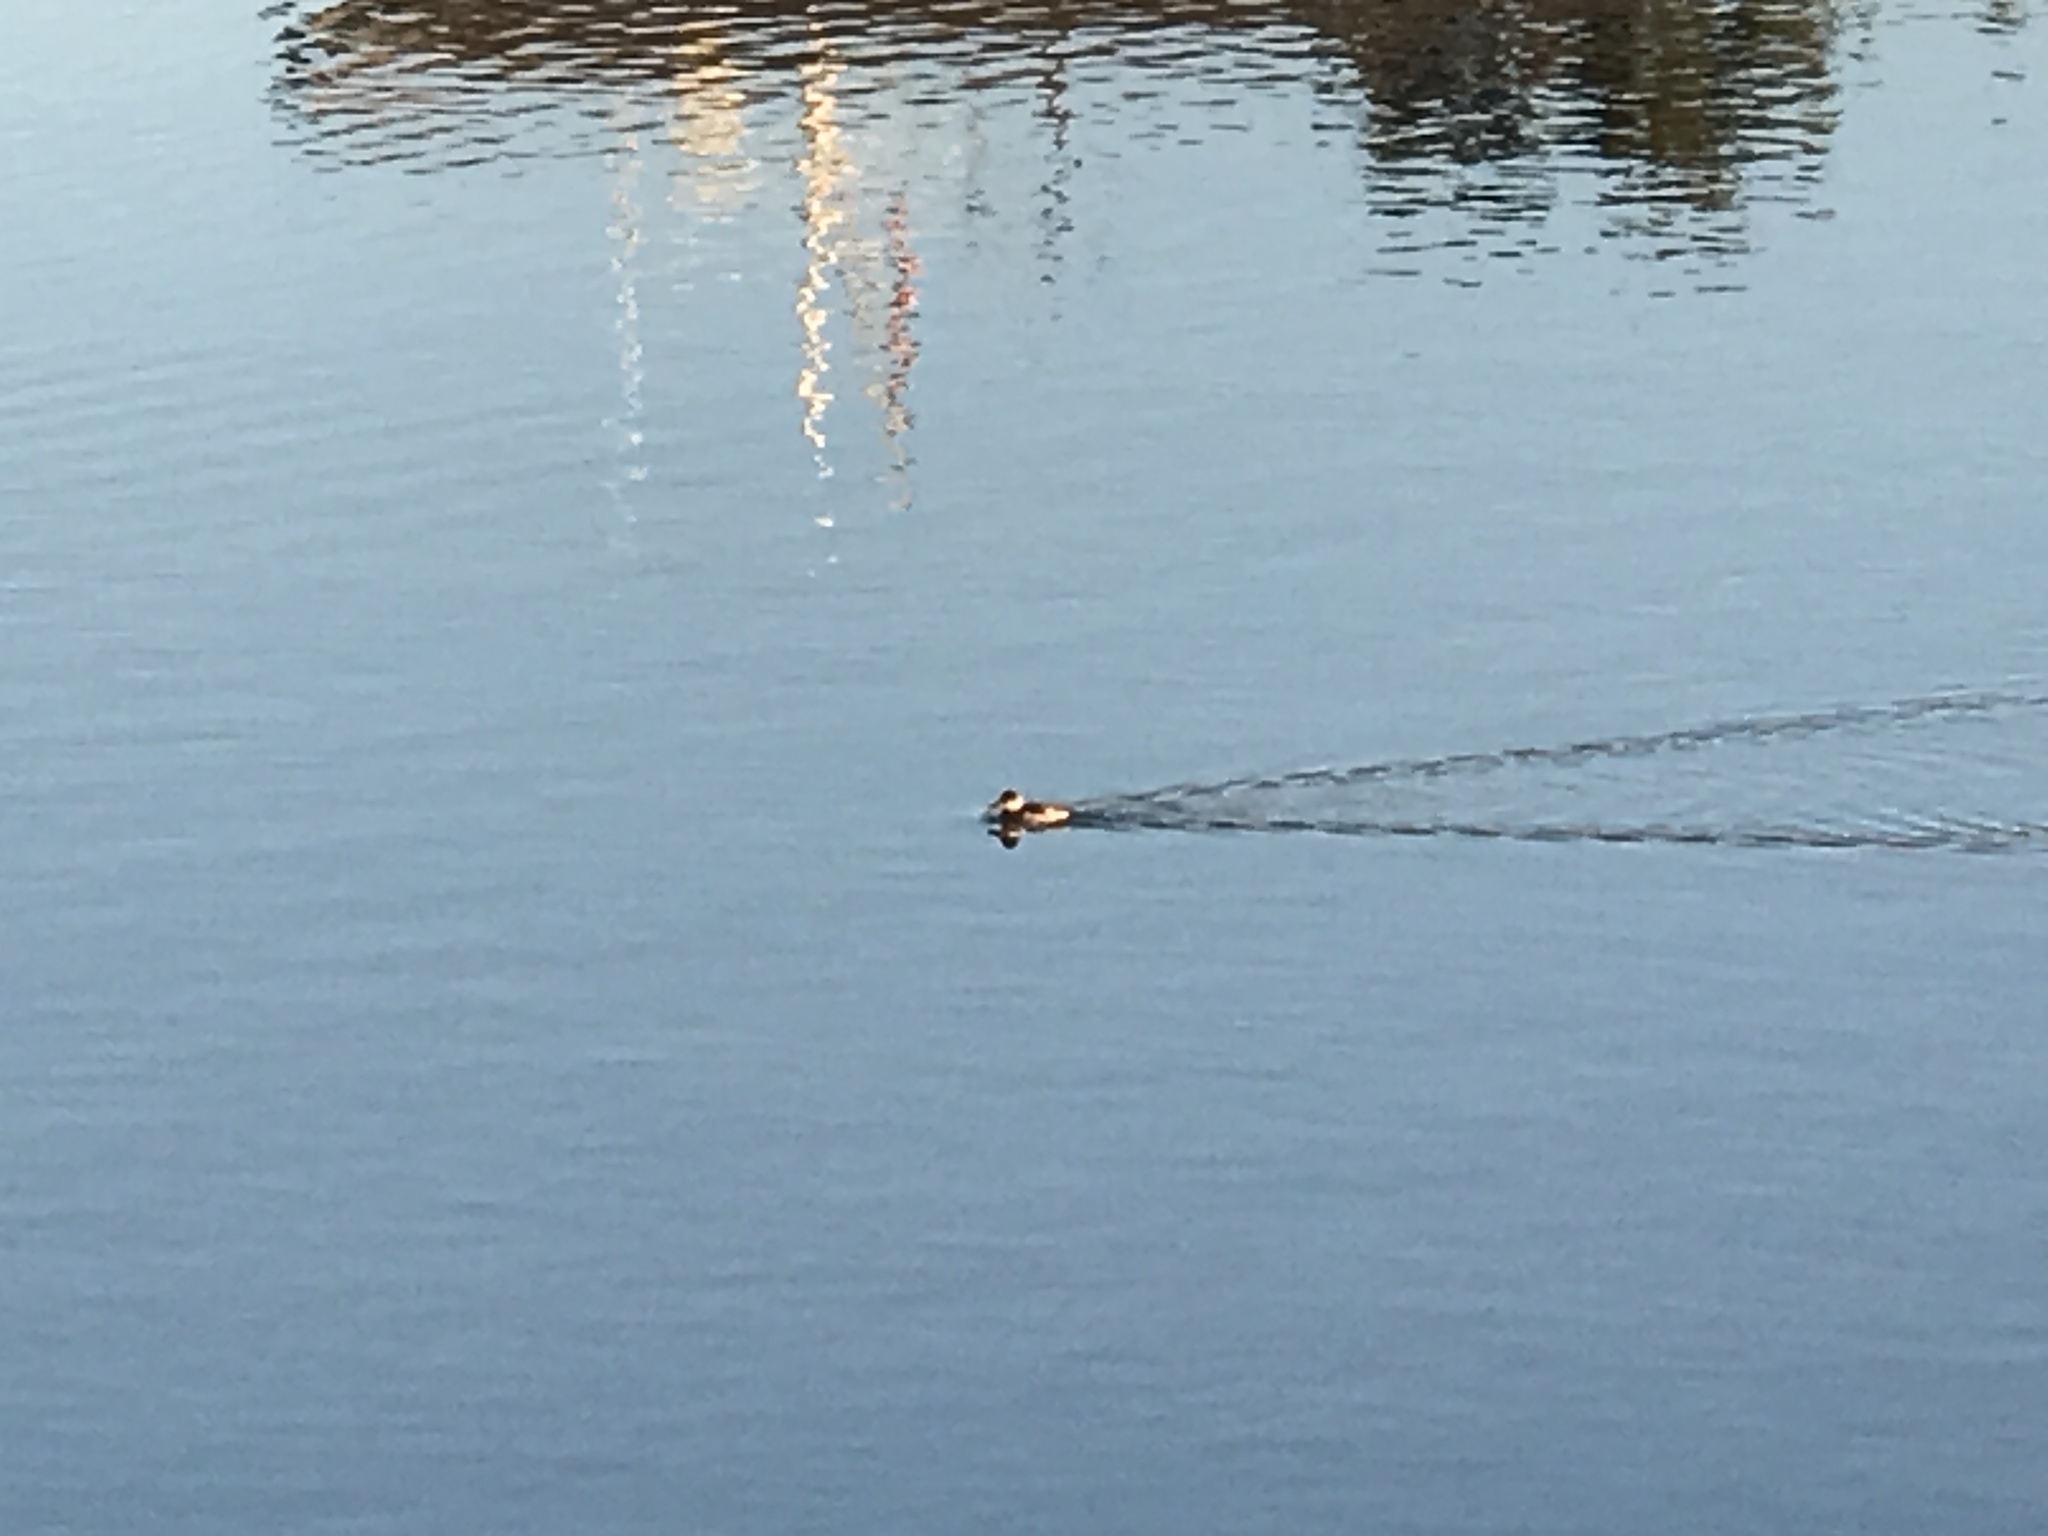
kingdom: Animalia
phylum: Chordata
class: Aves
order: Anseriformes
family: Anatidae
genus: Oxyura
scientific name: Oxyura jamaicensis
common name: Ruddy duck
